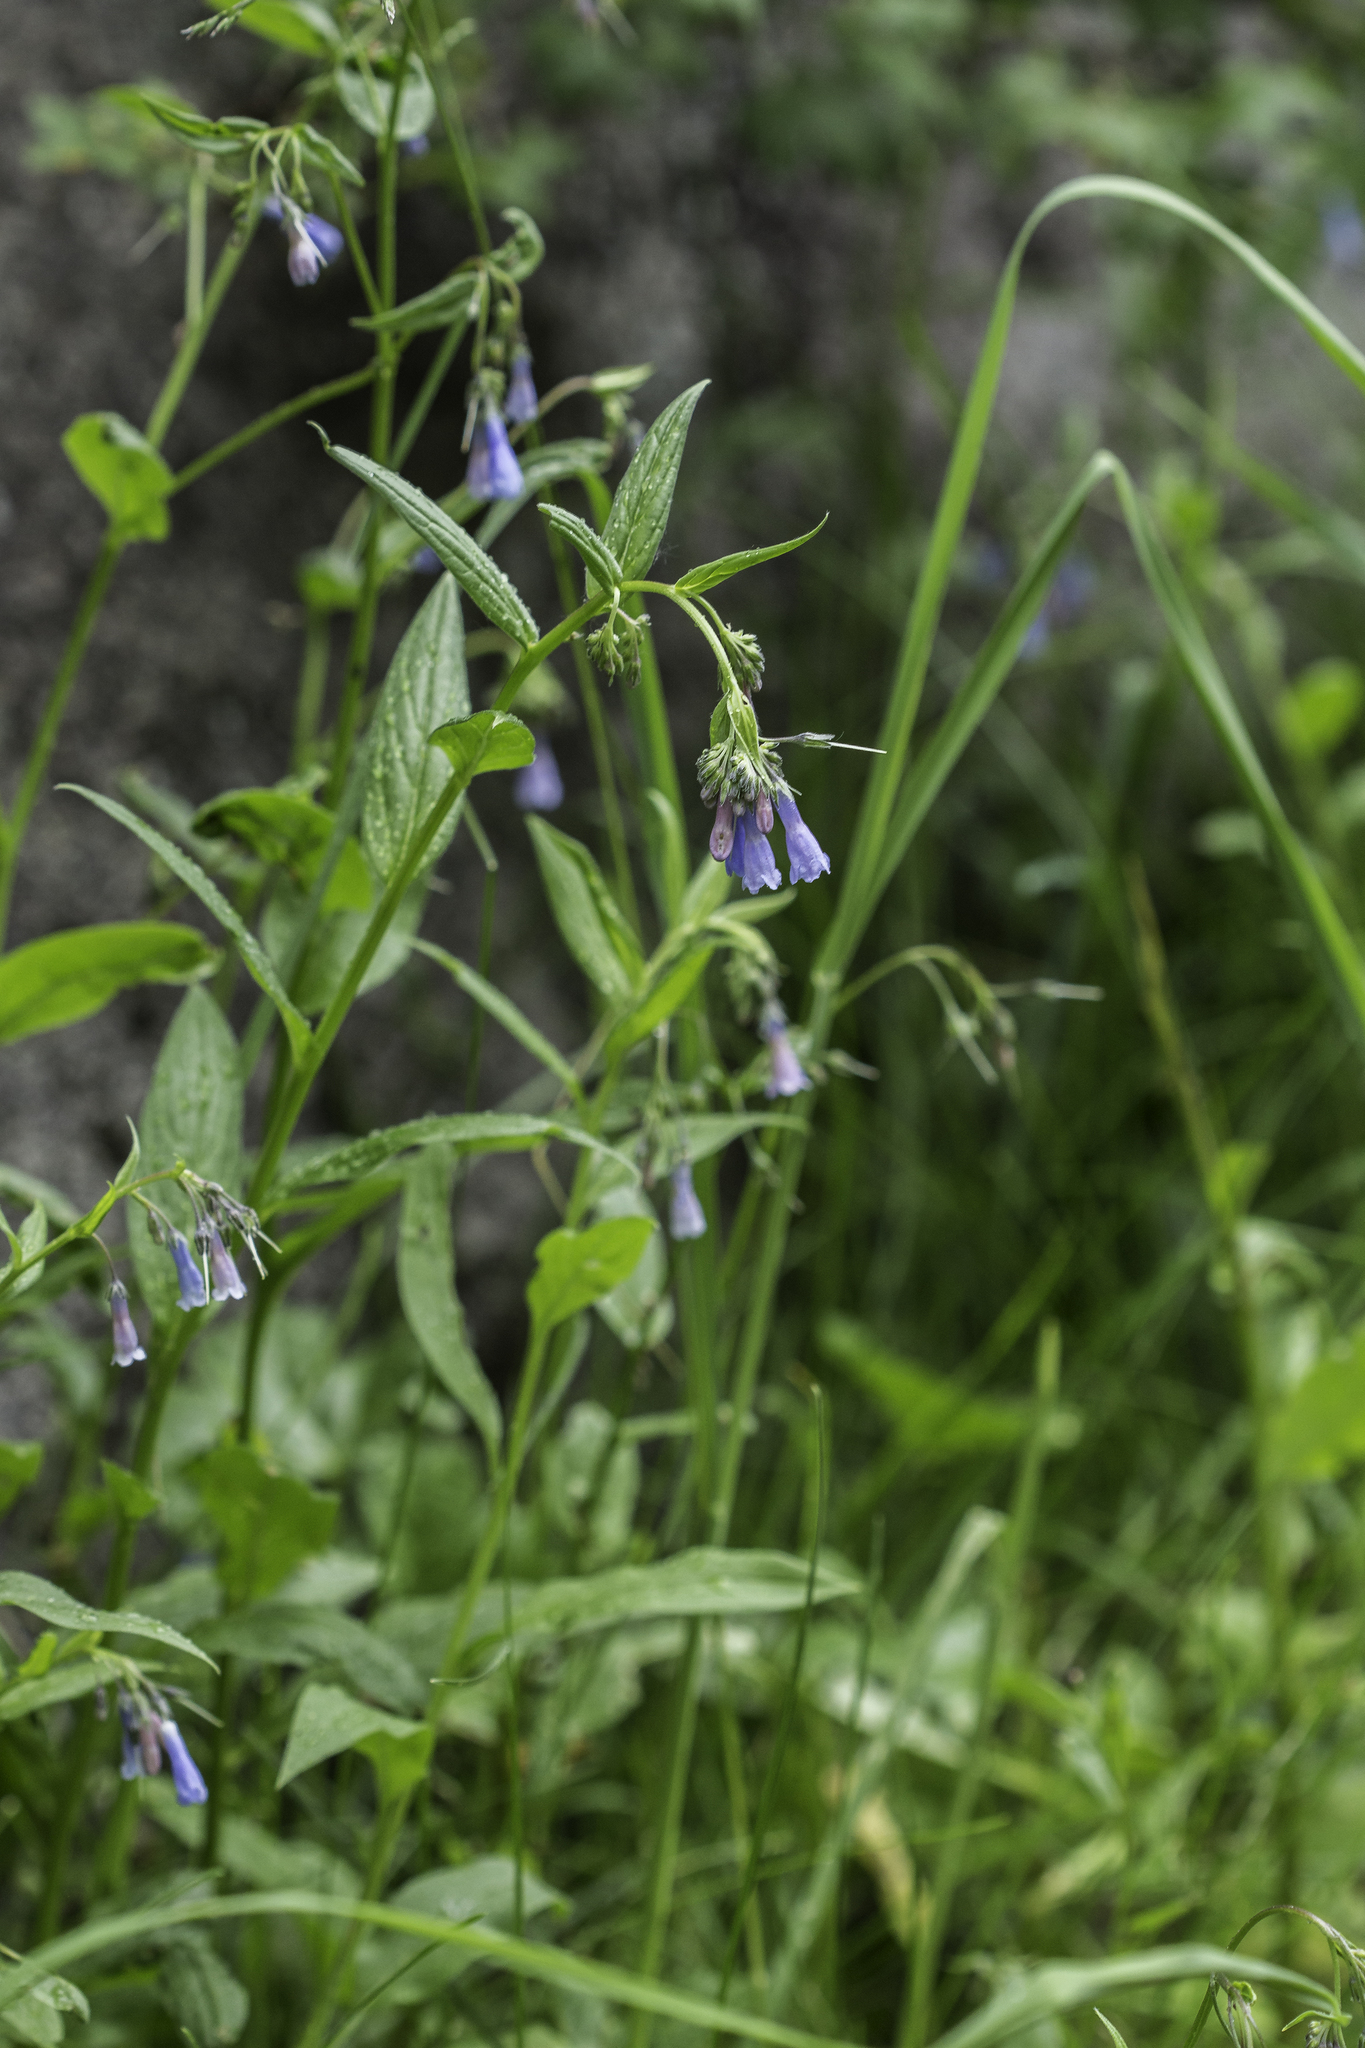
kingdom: Plantae
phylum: Tracheophyta
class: Magnoliopsida
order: Boraginales
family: Boraginaceae
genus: Mertensia
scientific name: Mertensia franciscana
